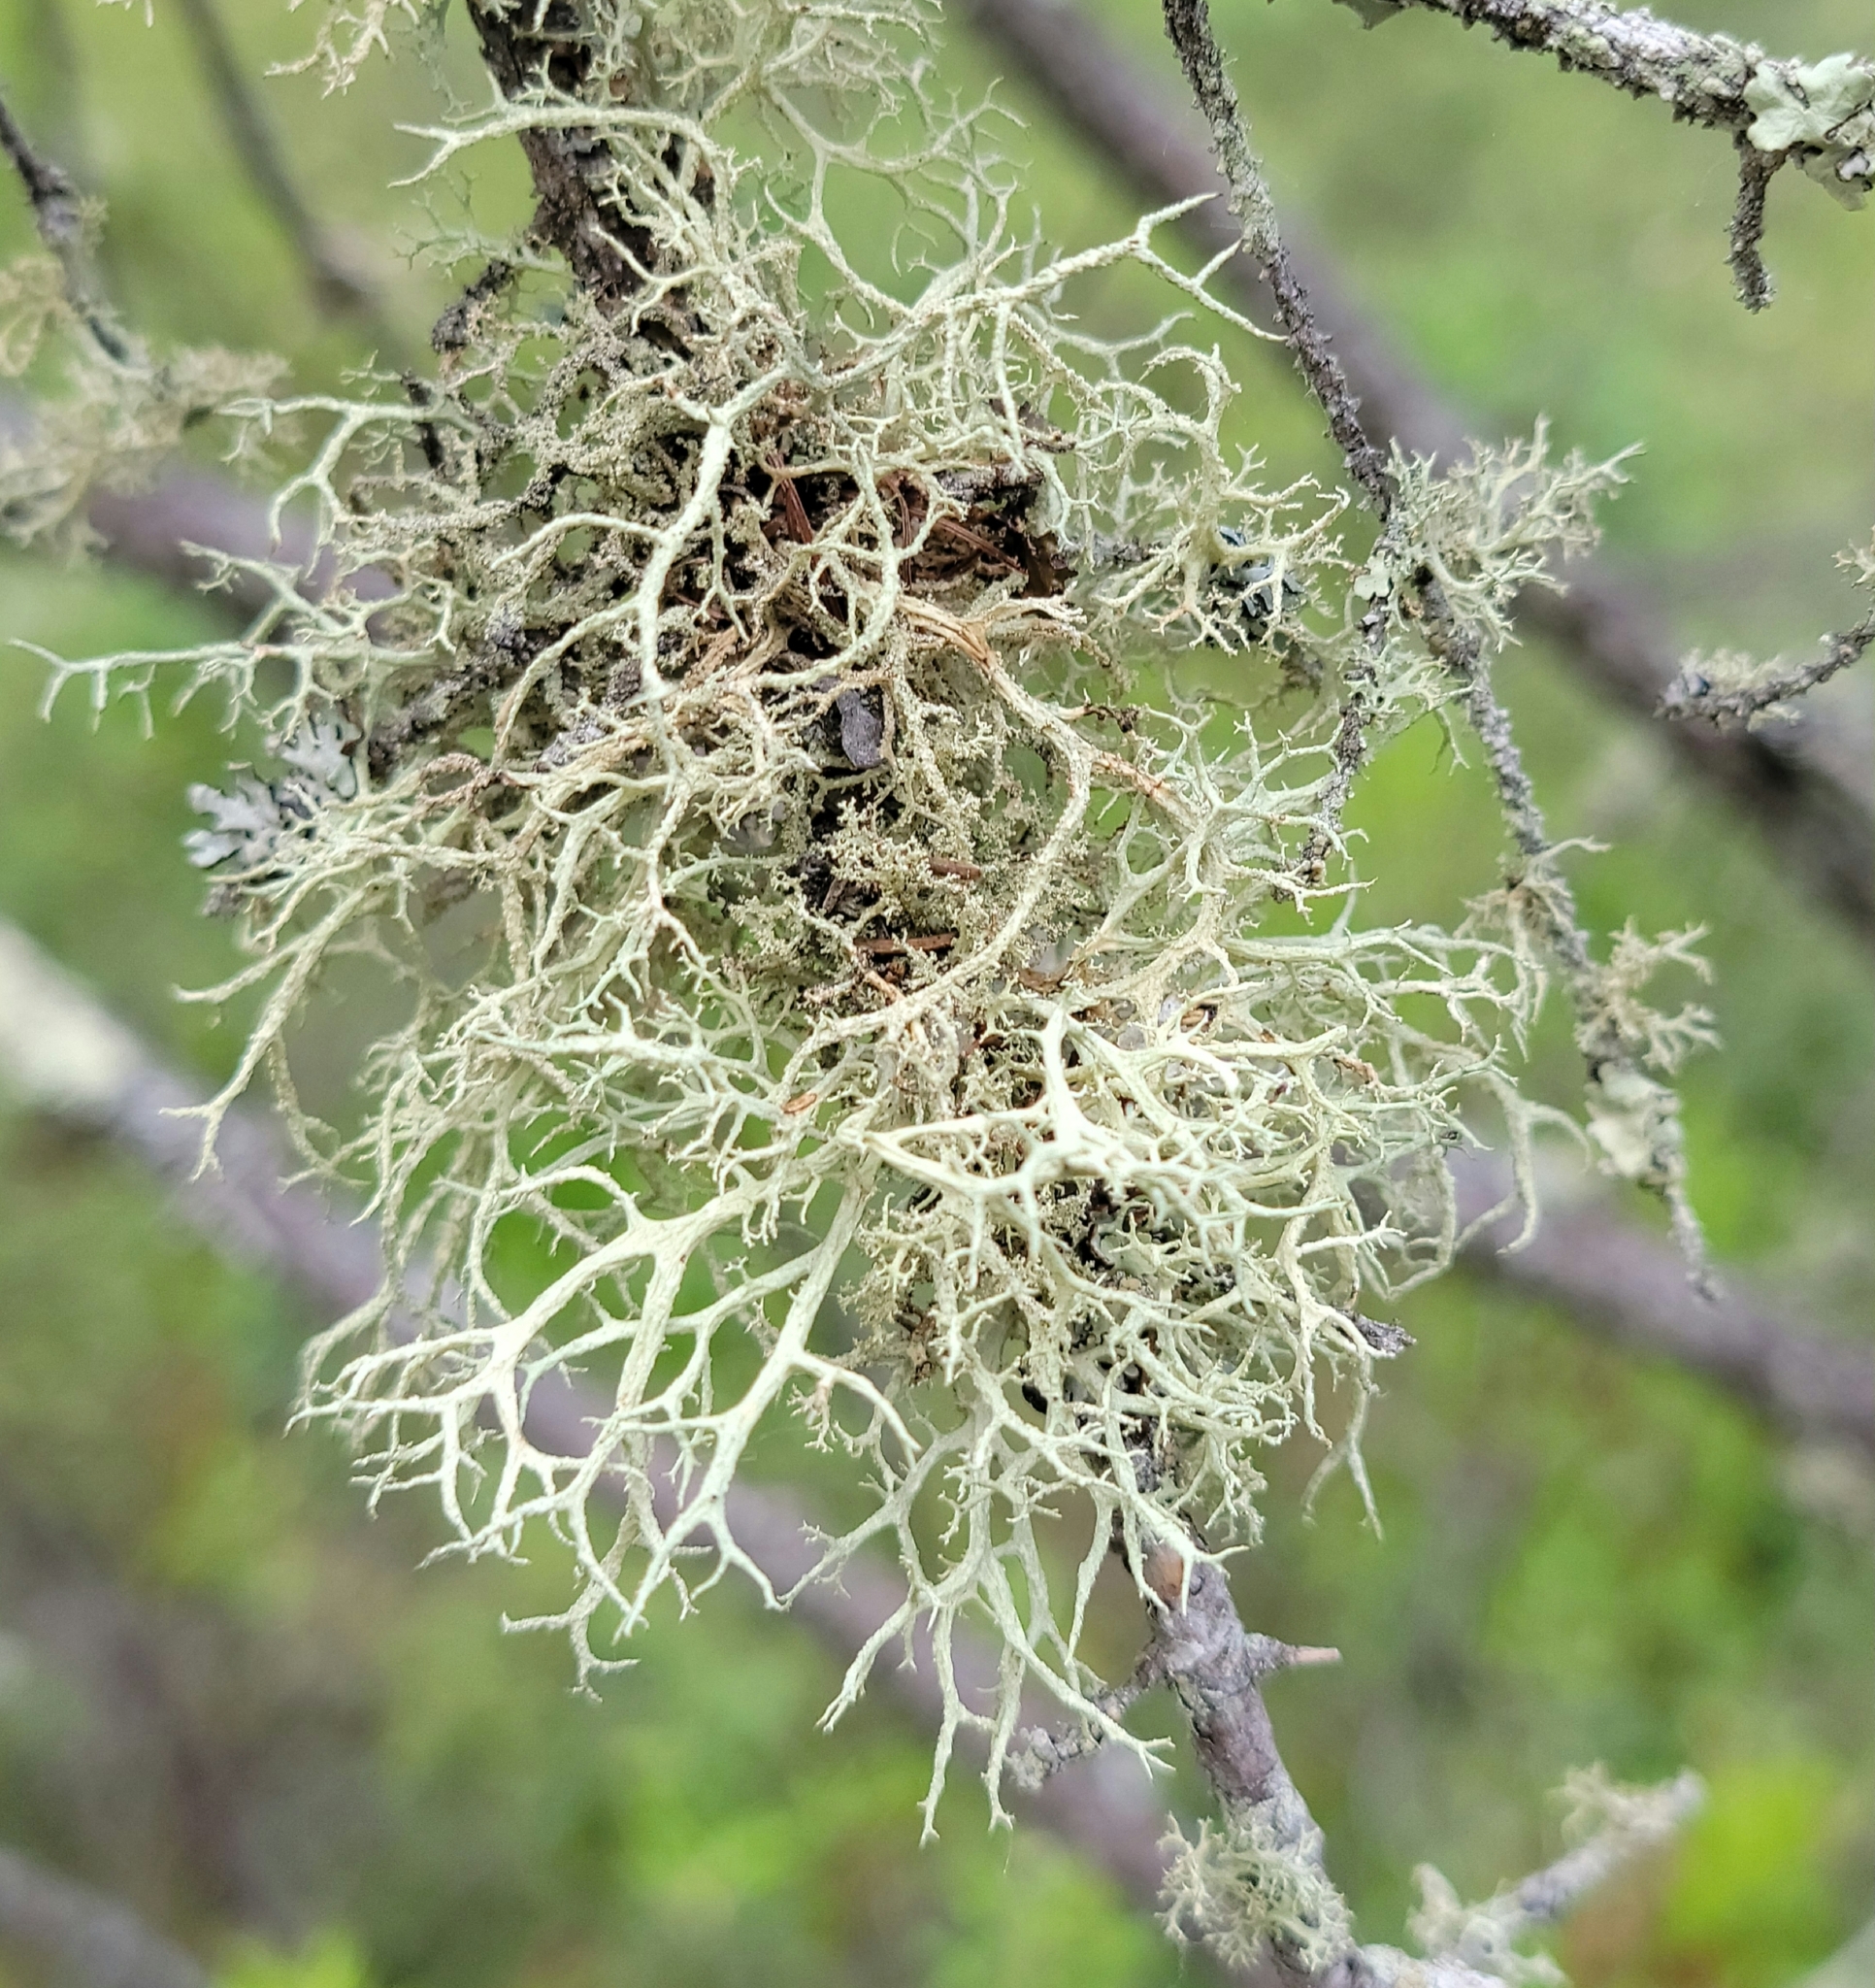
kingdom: Fungi
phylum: Ascomycota
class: Lecanoromycetes
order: Lecanorales
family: Parmeliaceae
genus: Evernia
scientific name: Evernia mesomorpha
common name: Boreal oak moss lichen
